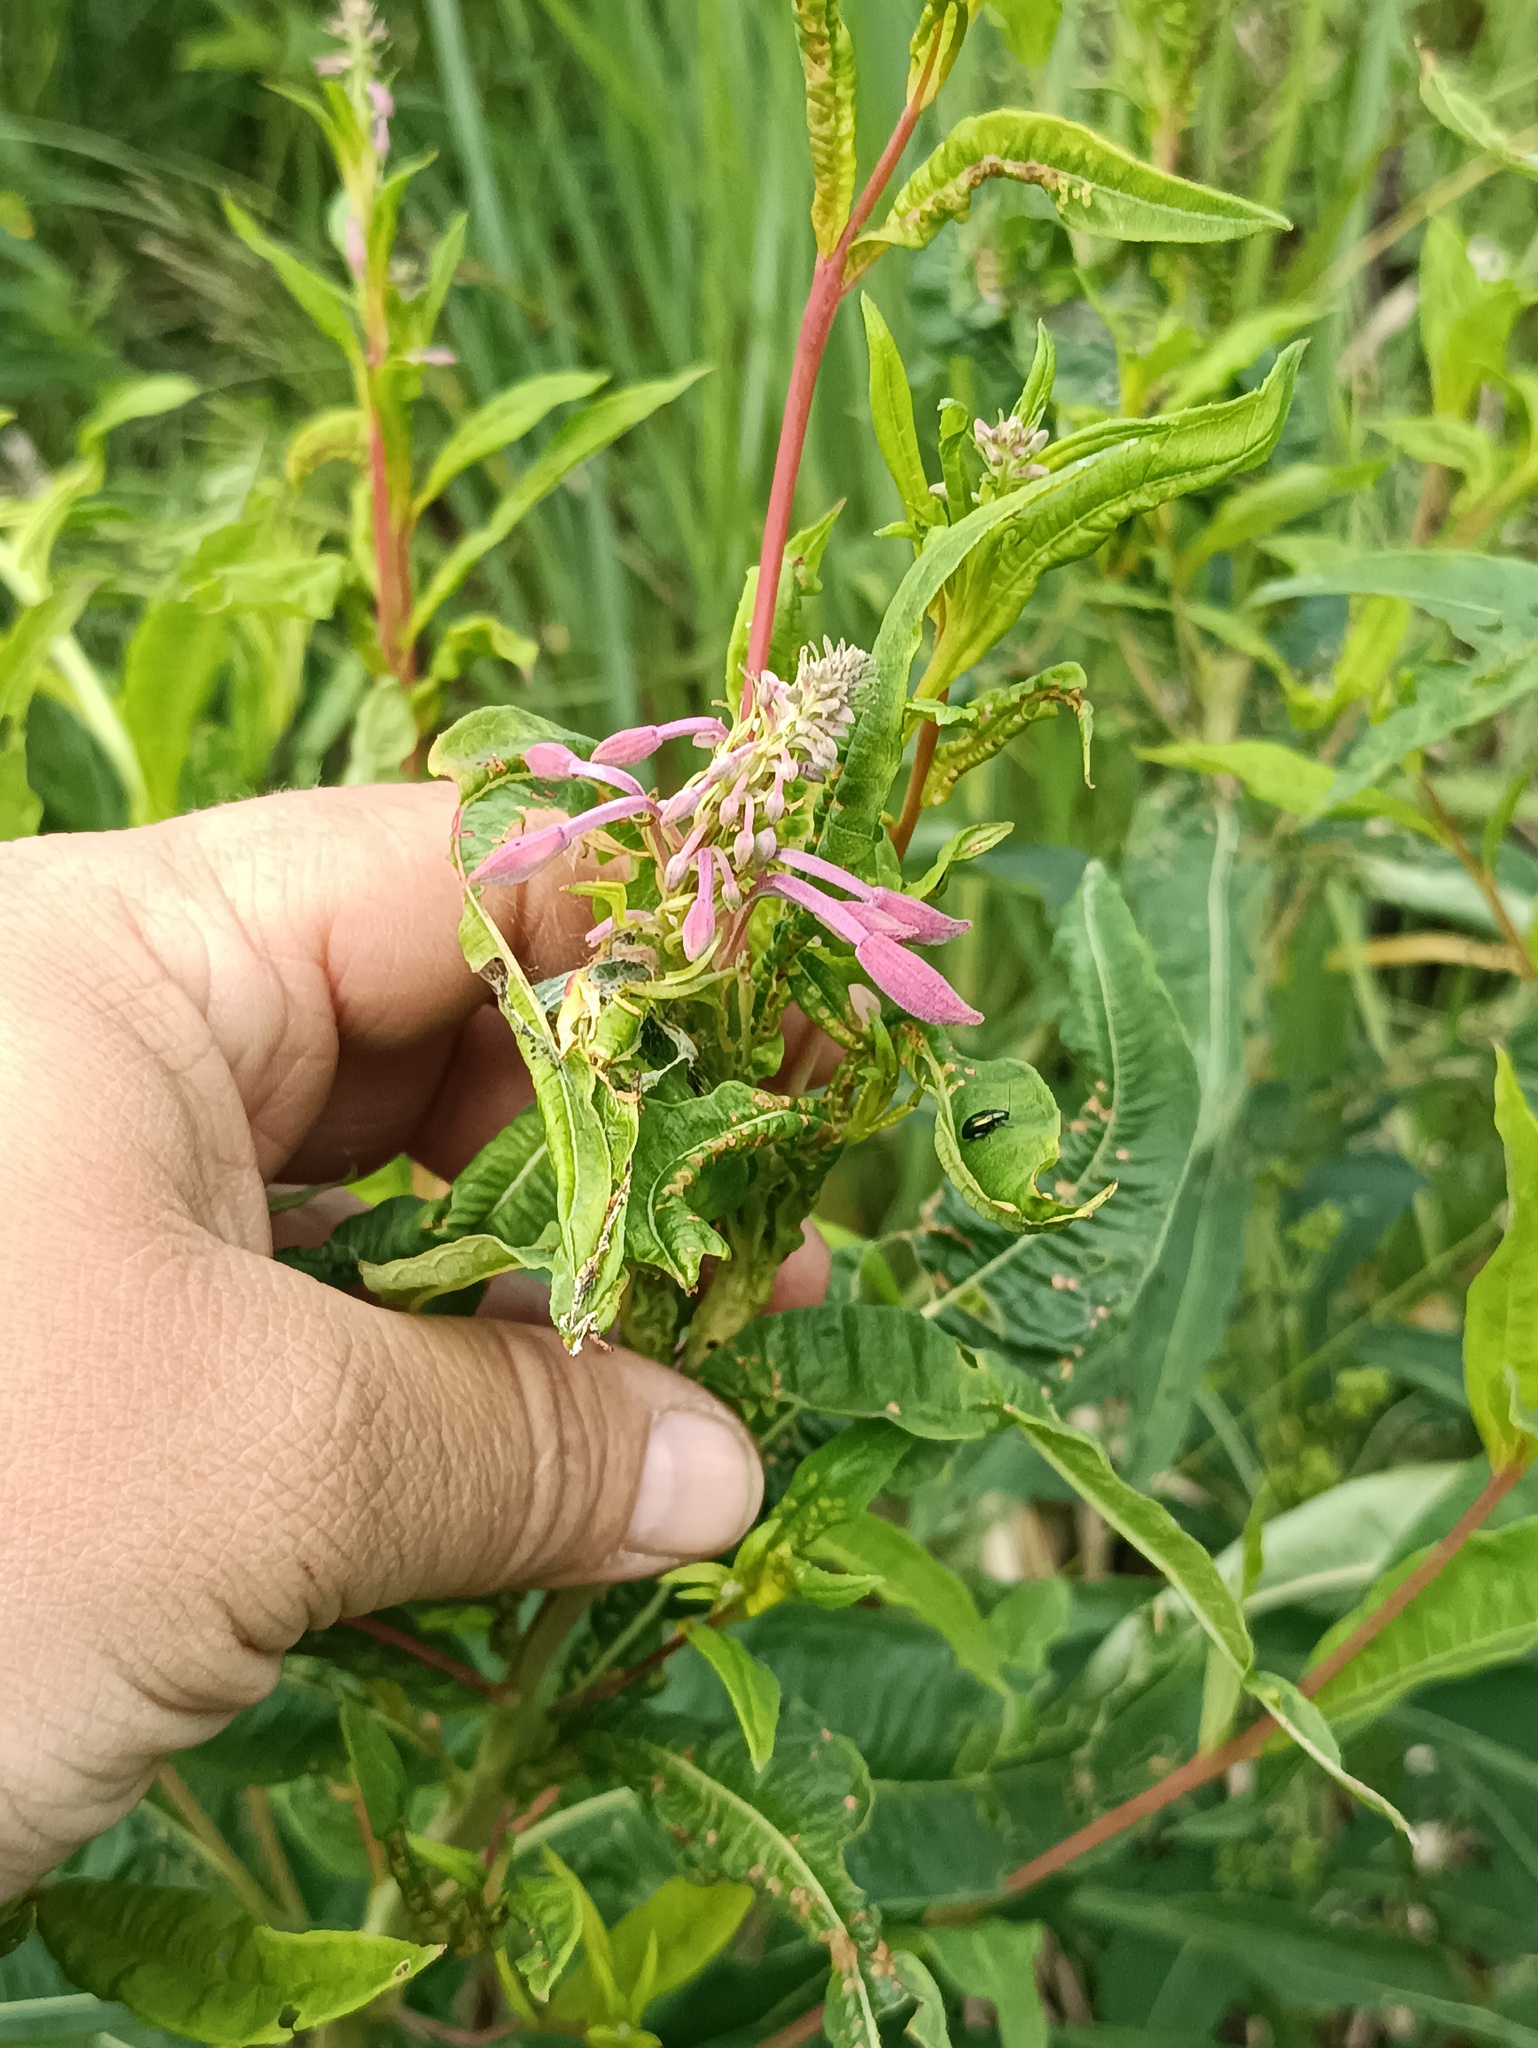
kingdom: Plantae
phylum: Tracheophyta
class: Magnoliopsida
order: Myrtales
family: Onagraceae
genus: Chamaenerion
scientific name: Chamaenerion angustifolium
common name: Fireweed
